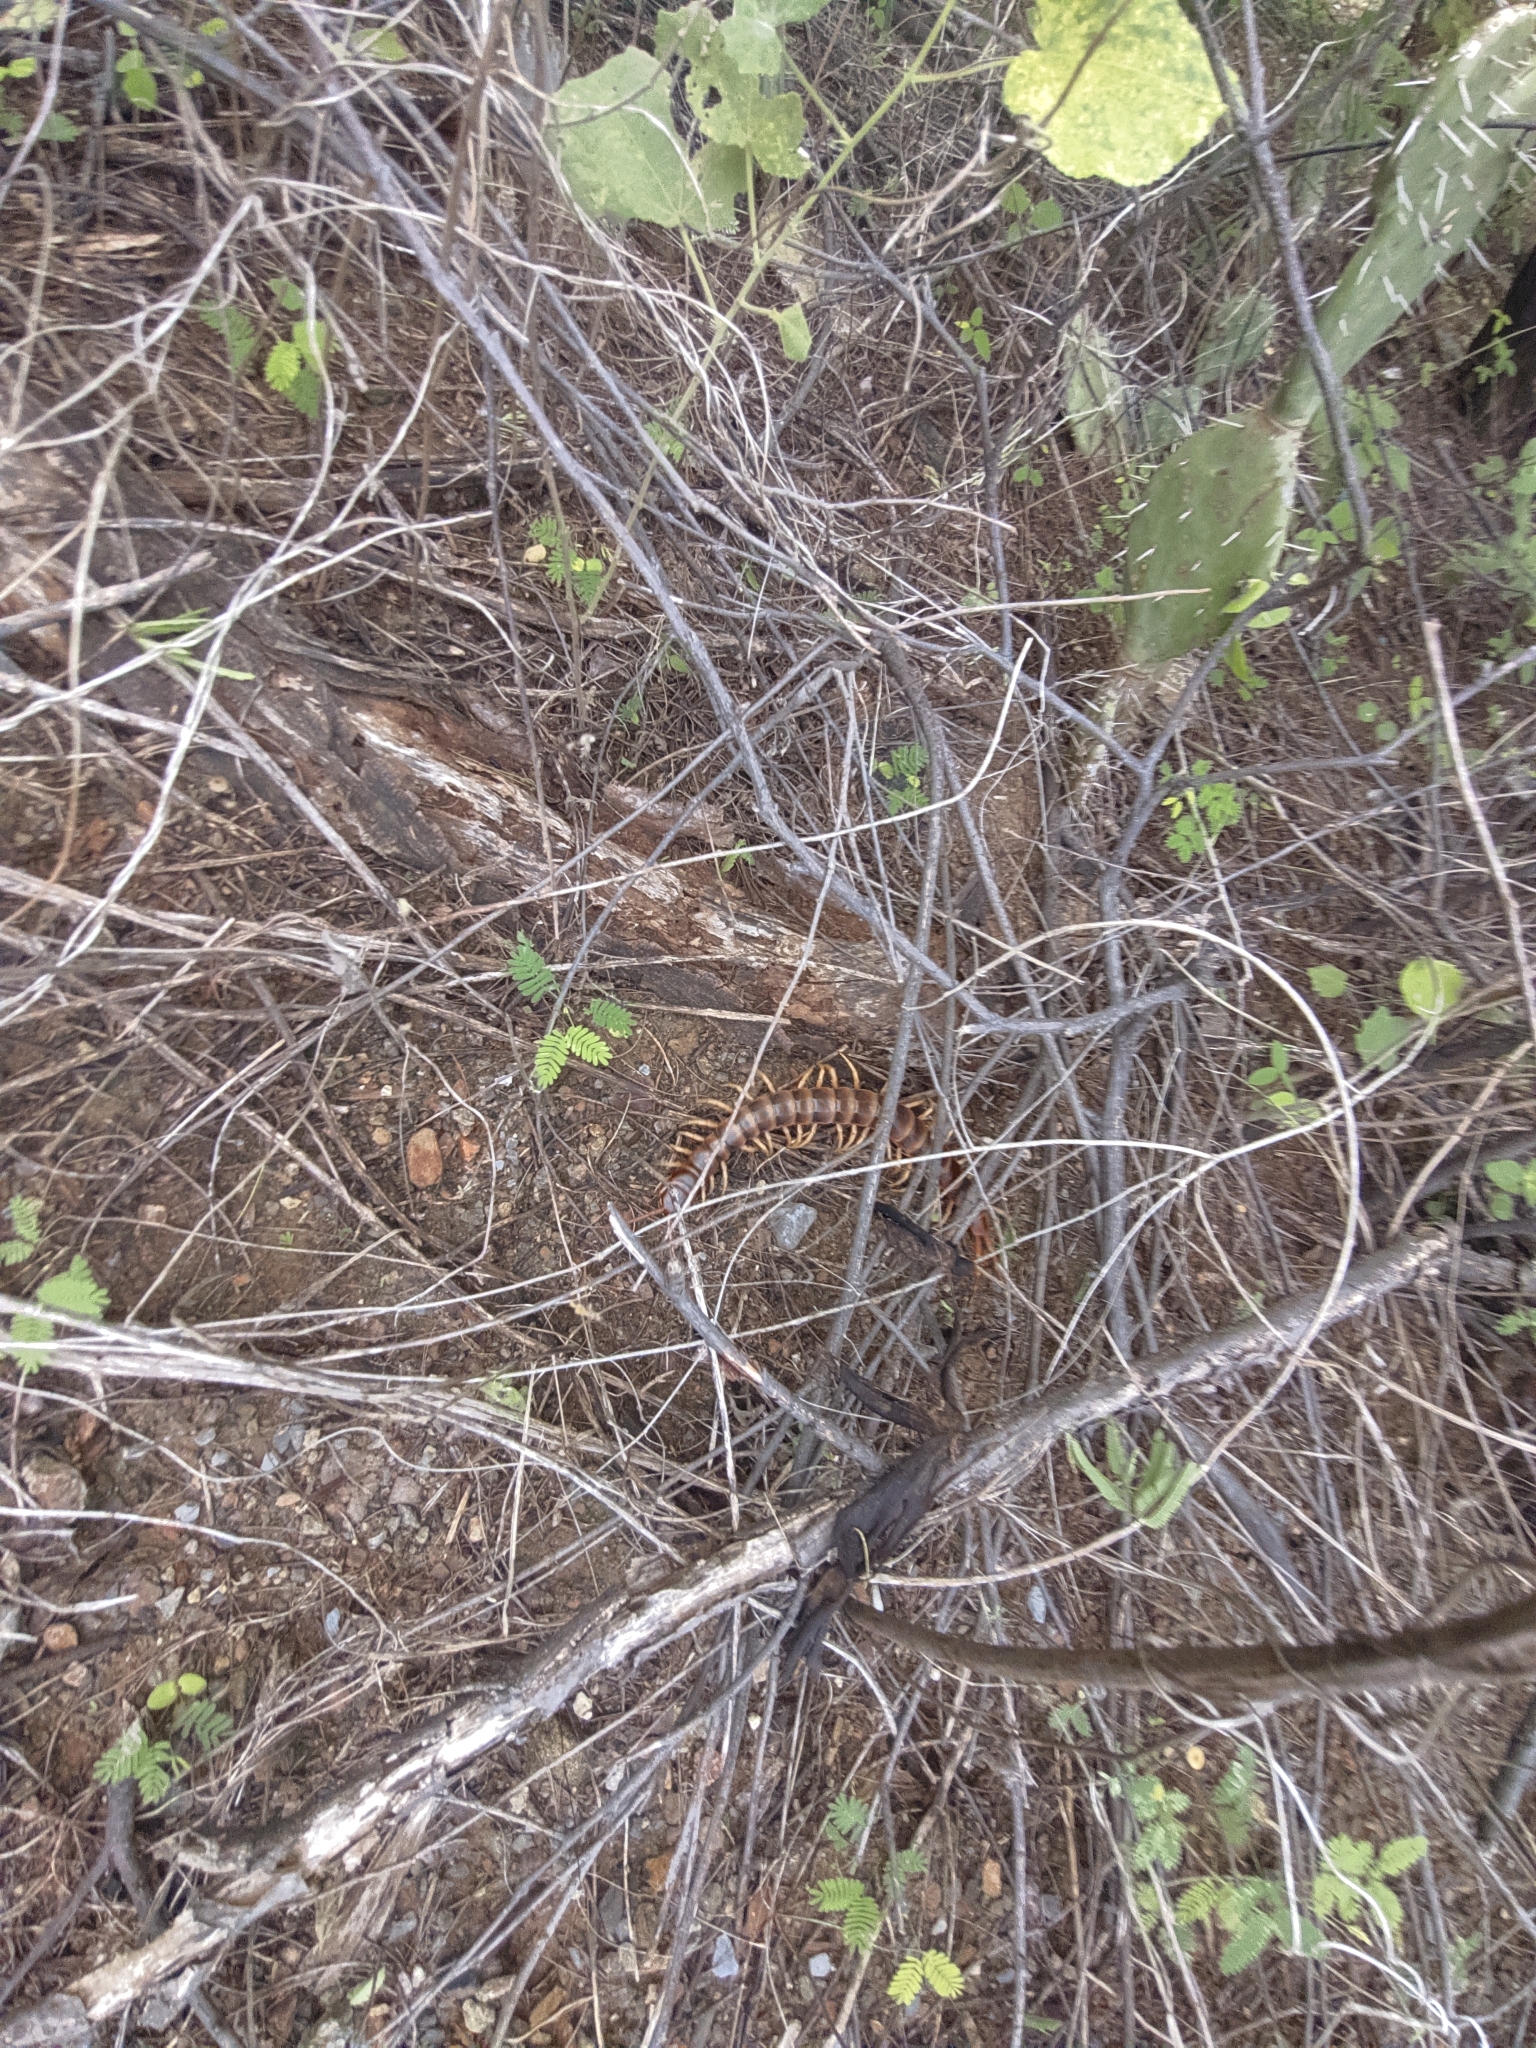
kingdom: Animalia
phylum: Arthropoda
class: Chilopoda
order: Scolopendromorpha
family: Scolopendridae
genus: Scolopendra
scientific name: Scolopendra gigantea
